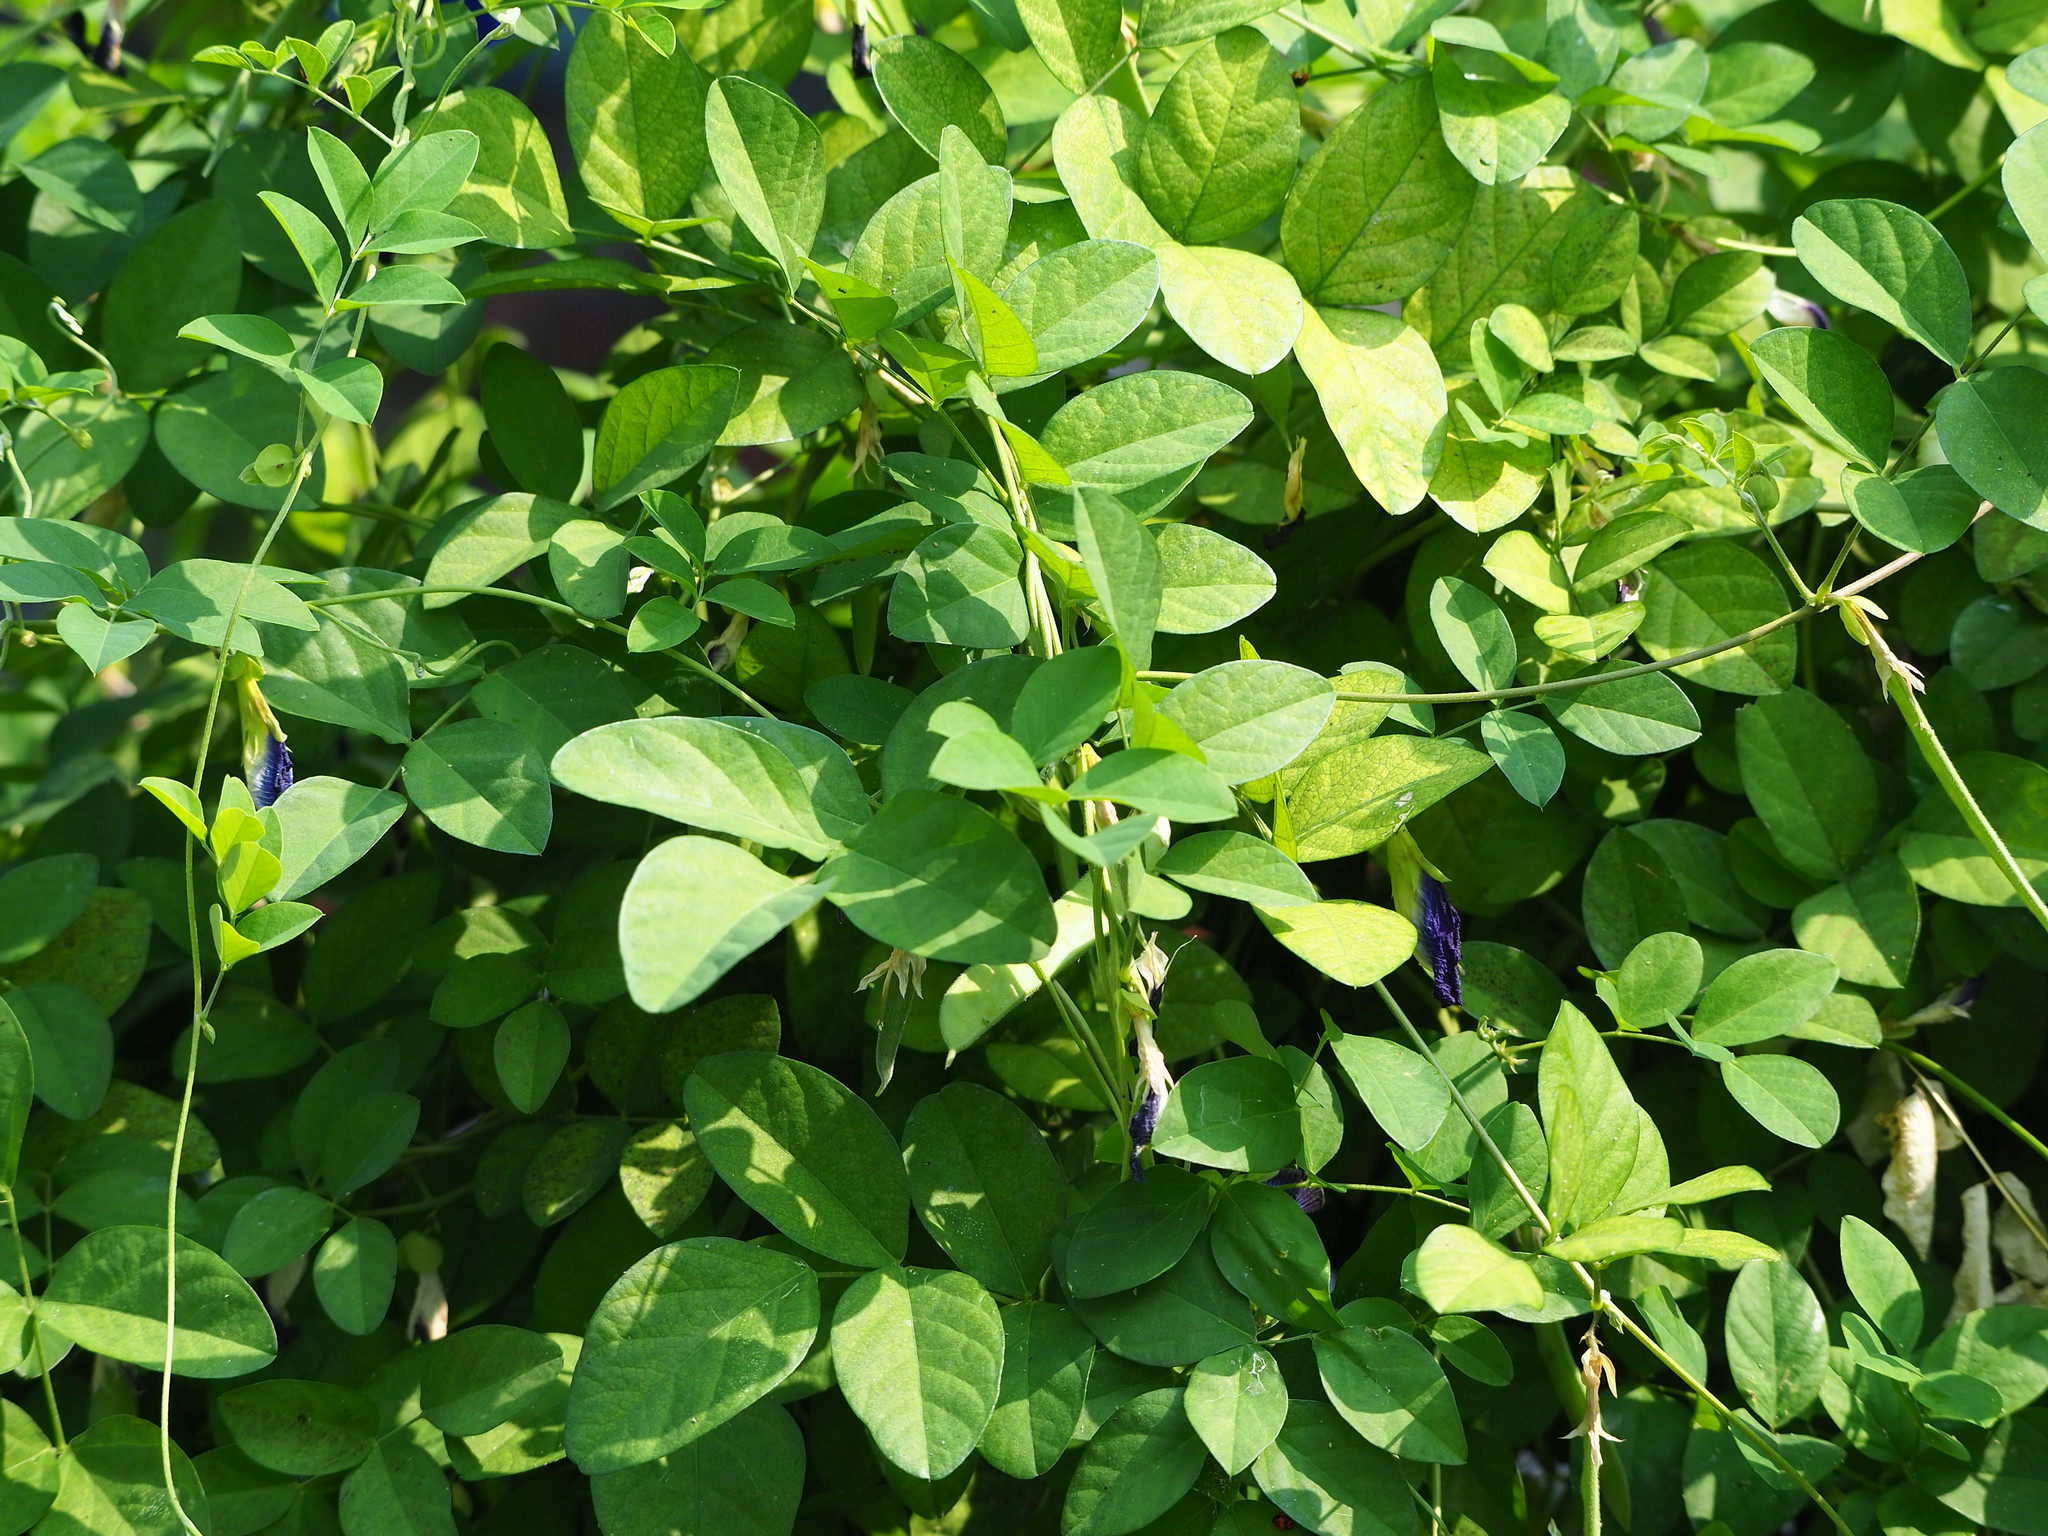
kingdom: Plantae
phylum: Tracheophyta
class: Magnoliopsida
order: Fabales
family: Fabaceae
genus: Clitoria
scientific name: Clitoria ternatea
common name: Asian pigeonwings
